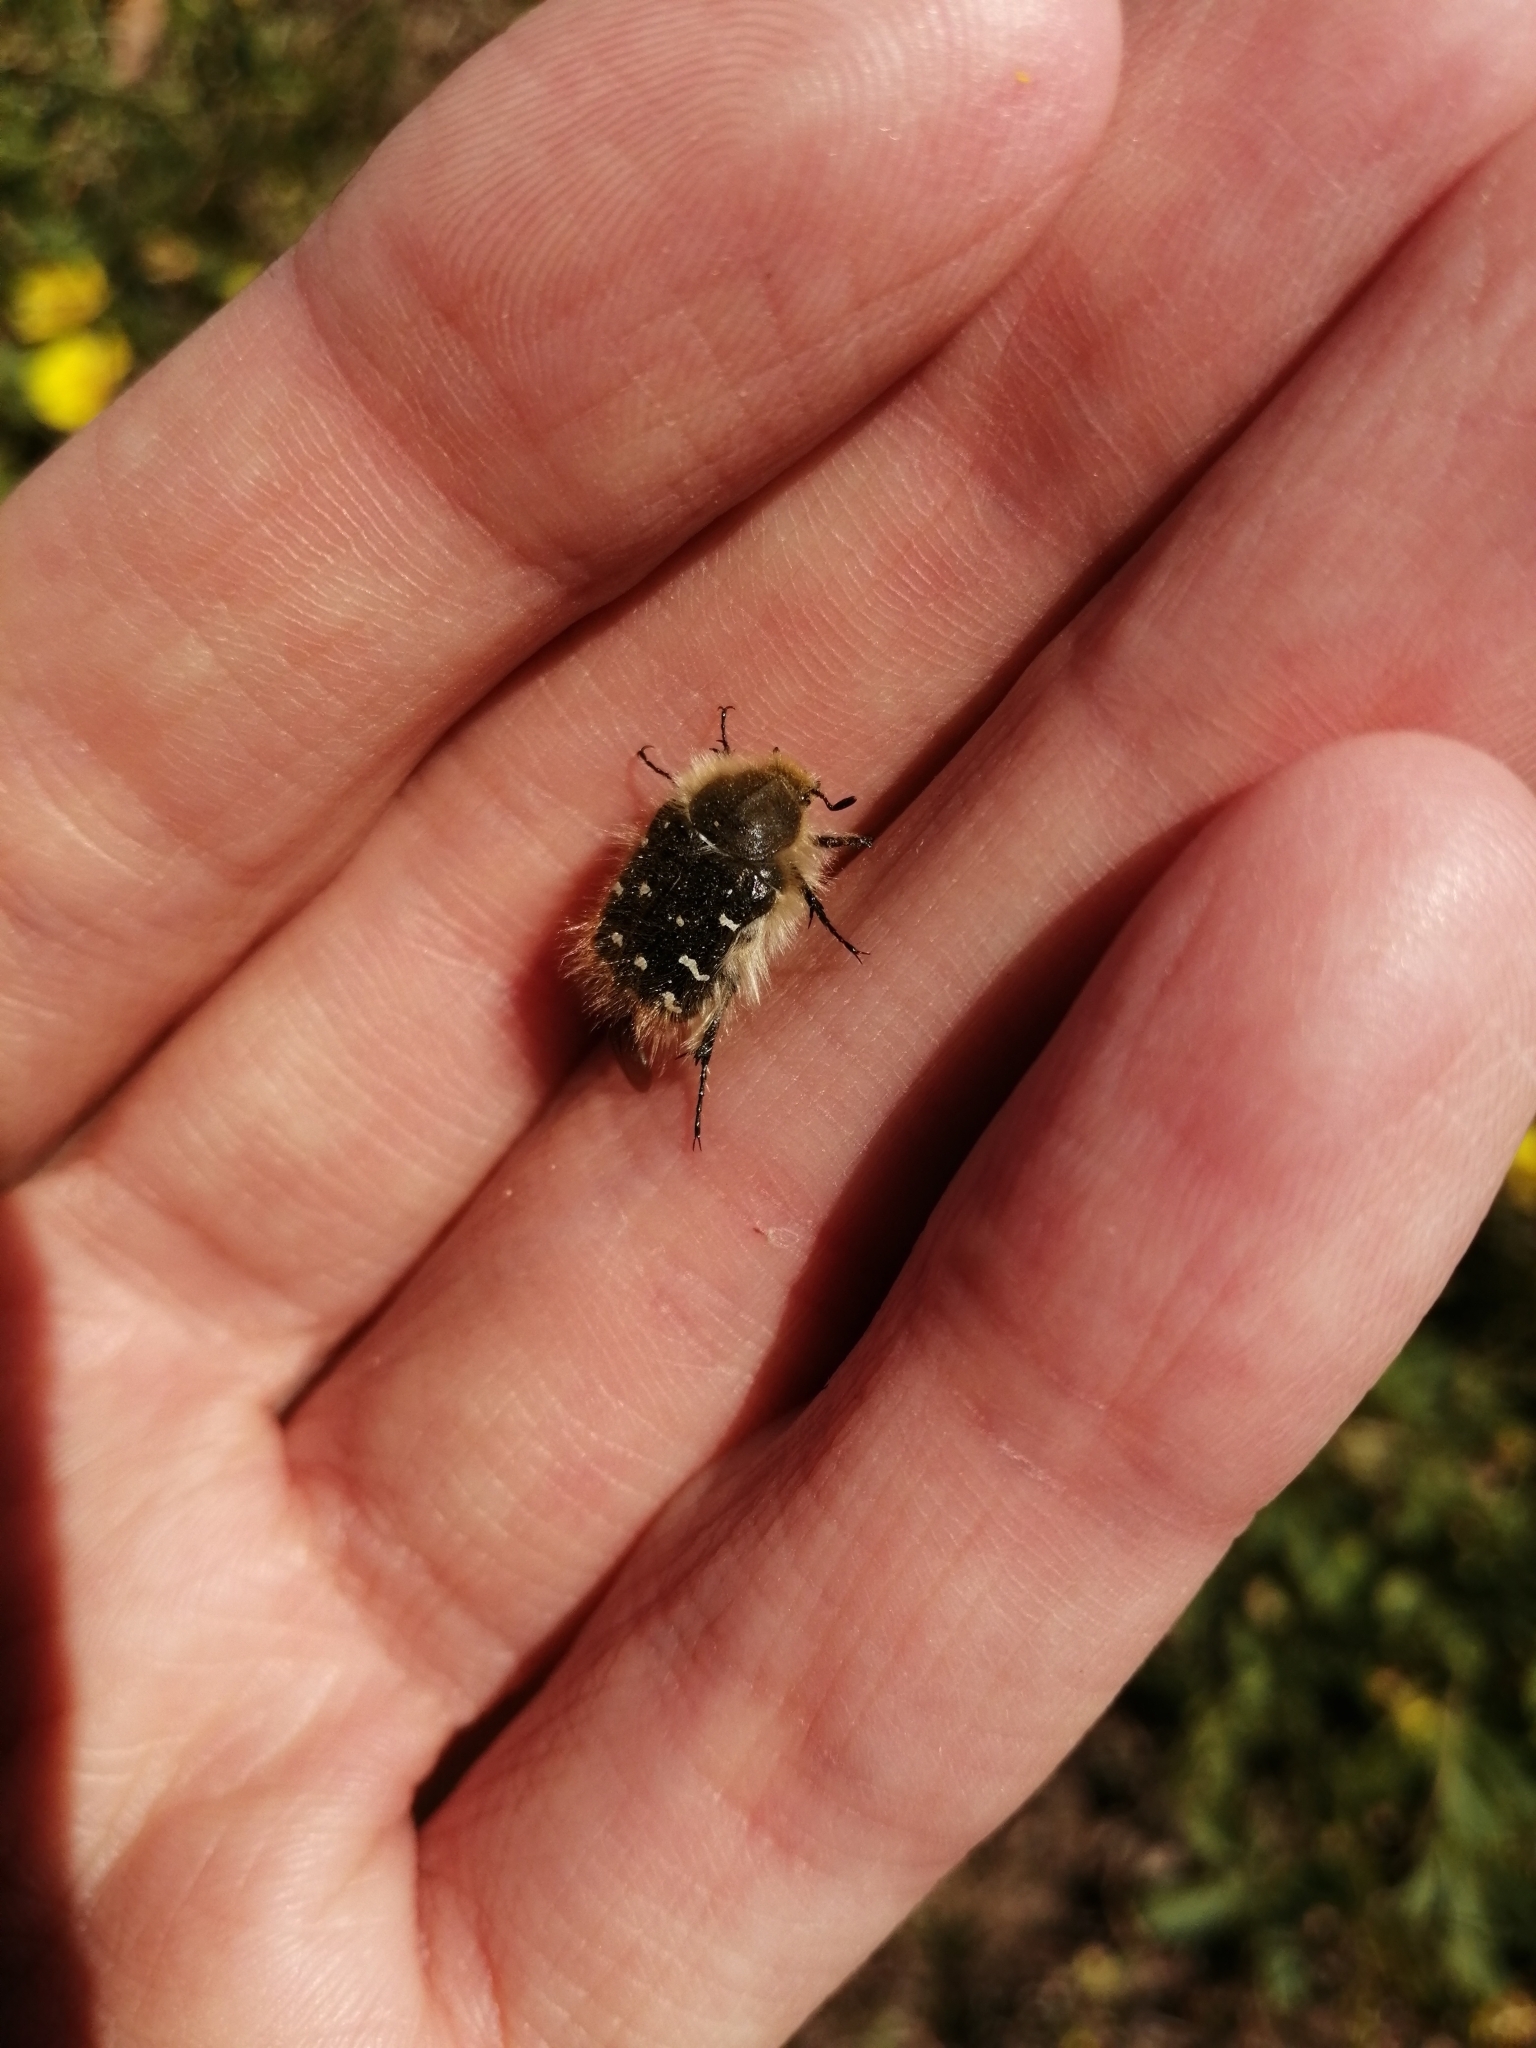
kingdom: Animalia
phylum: Arthropoda
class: Insecta
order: Coleoptera
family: Scarabaeidae
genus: Tropinota
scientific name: Tropinota hirta
